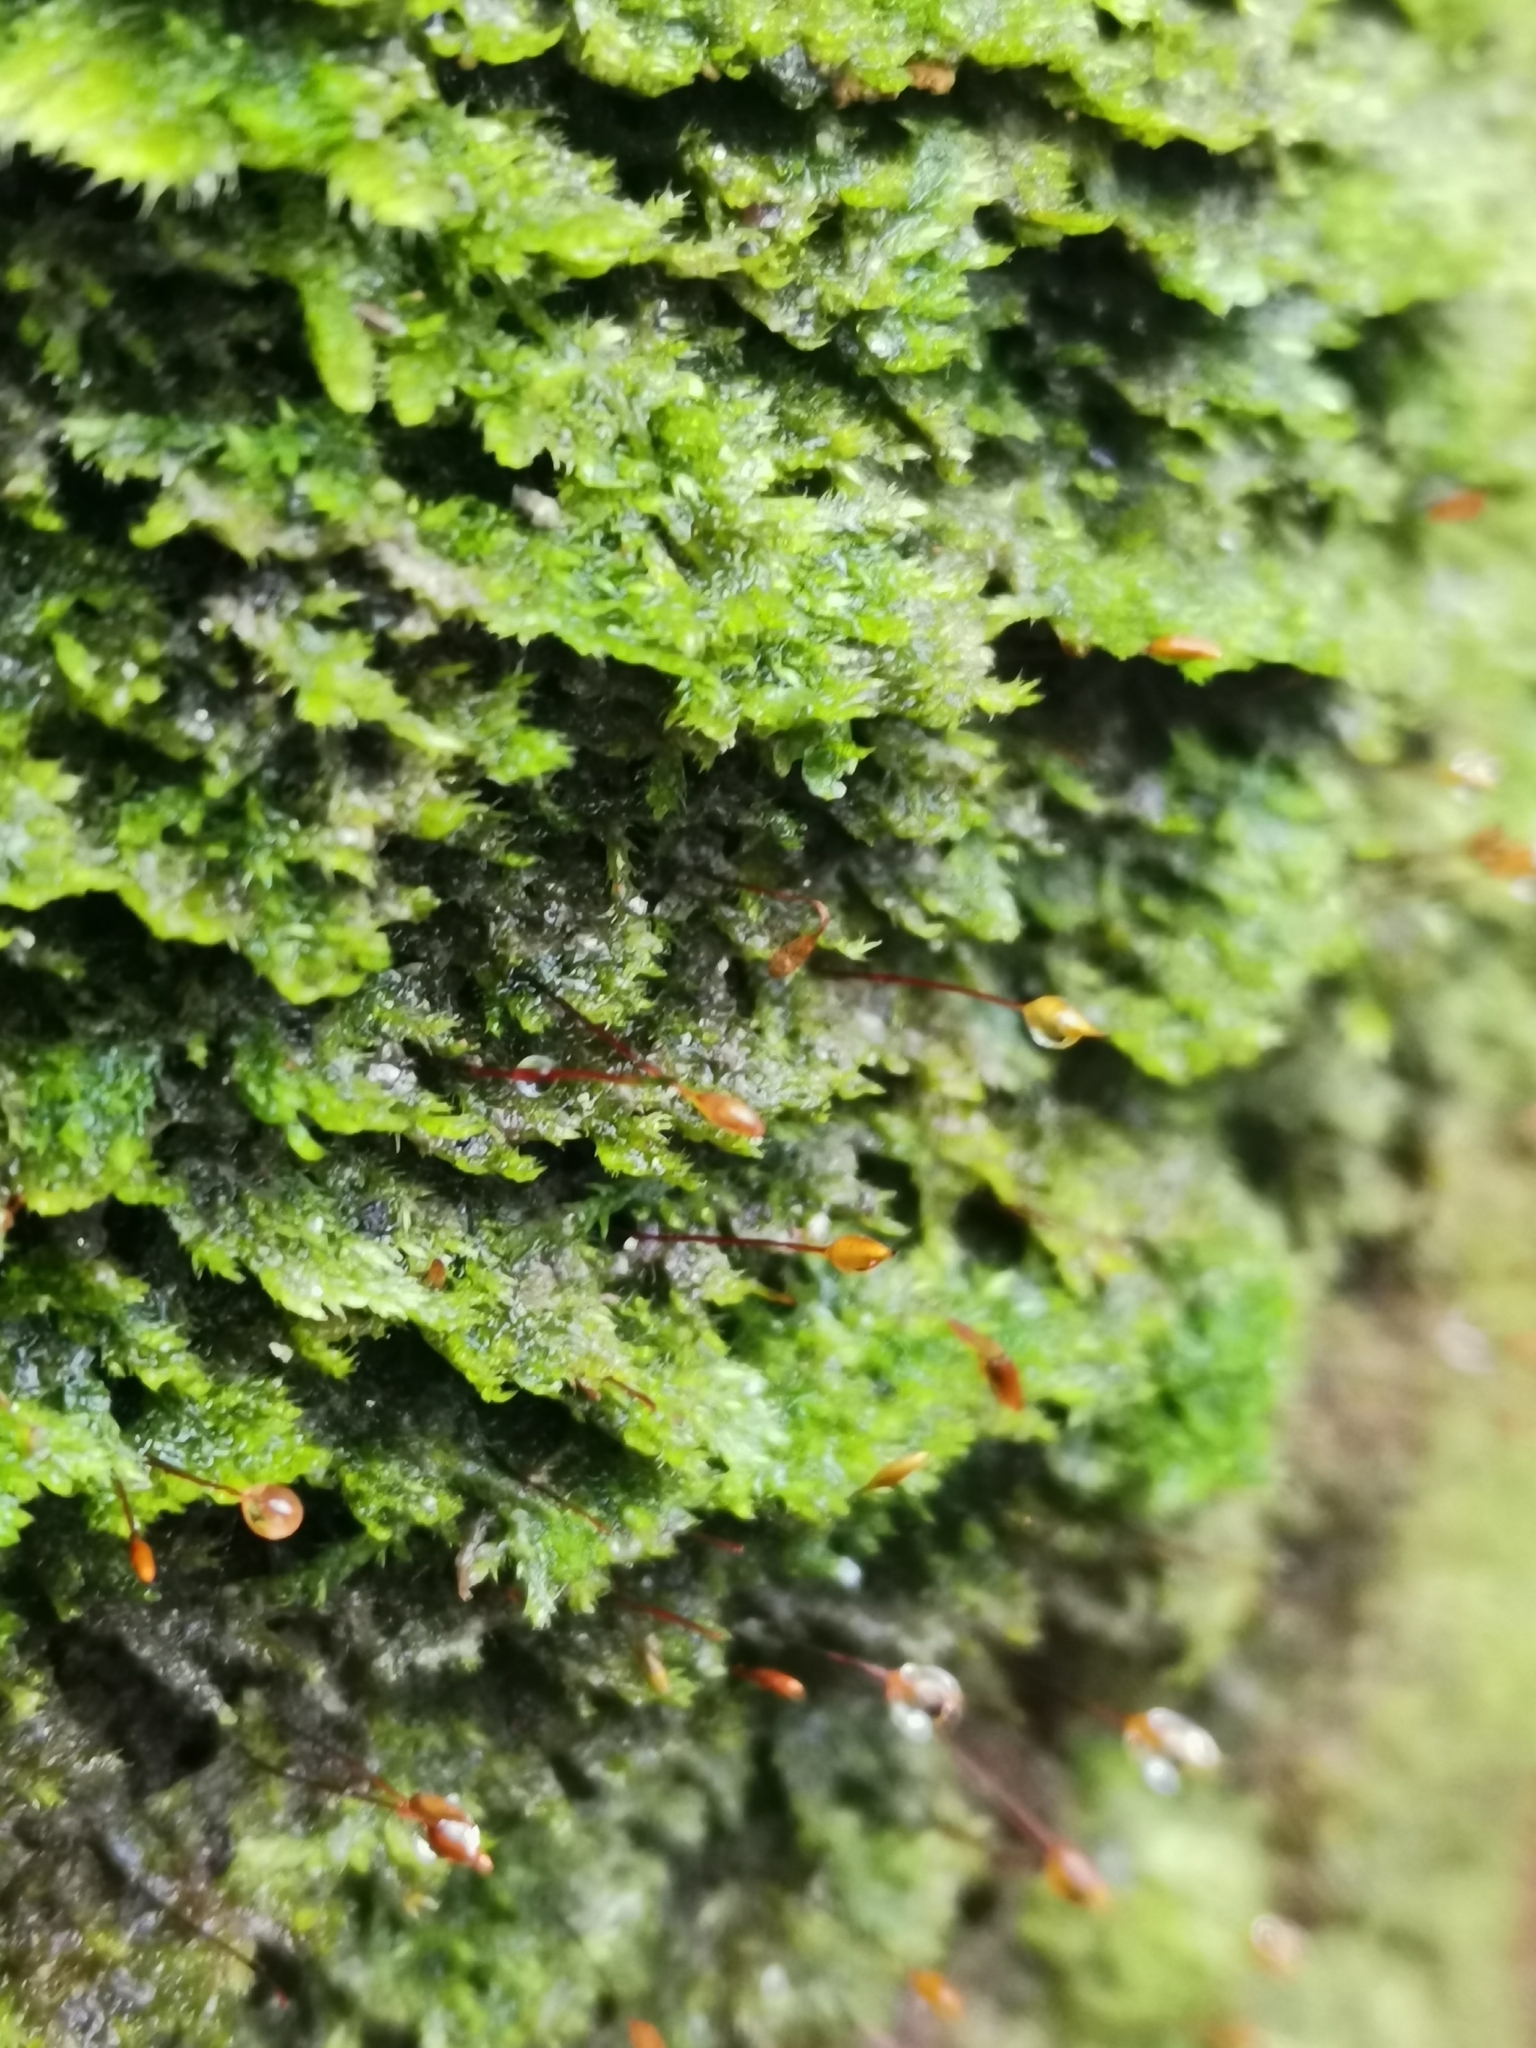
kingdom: Plantae
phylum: Bryophyta
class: Bryopsida
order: Hypnales
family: Pylaisiaceae
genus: Pylaisia
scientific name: Pylaisia polyantha
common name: Many-flowered leskea
